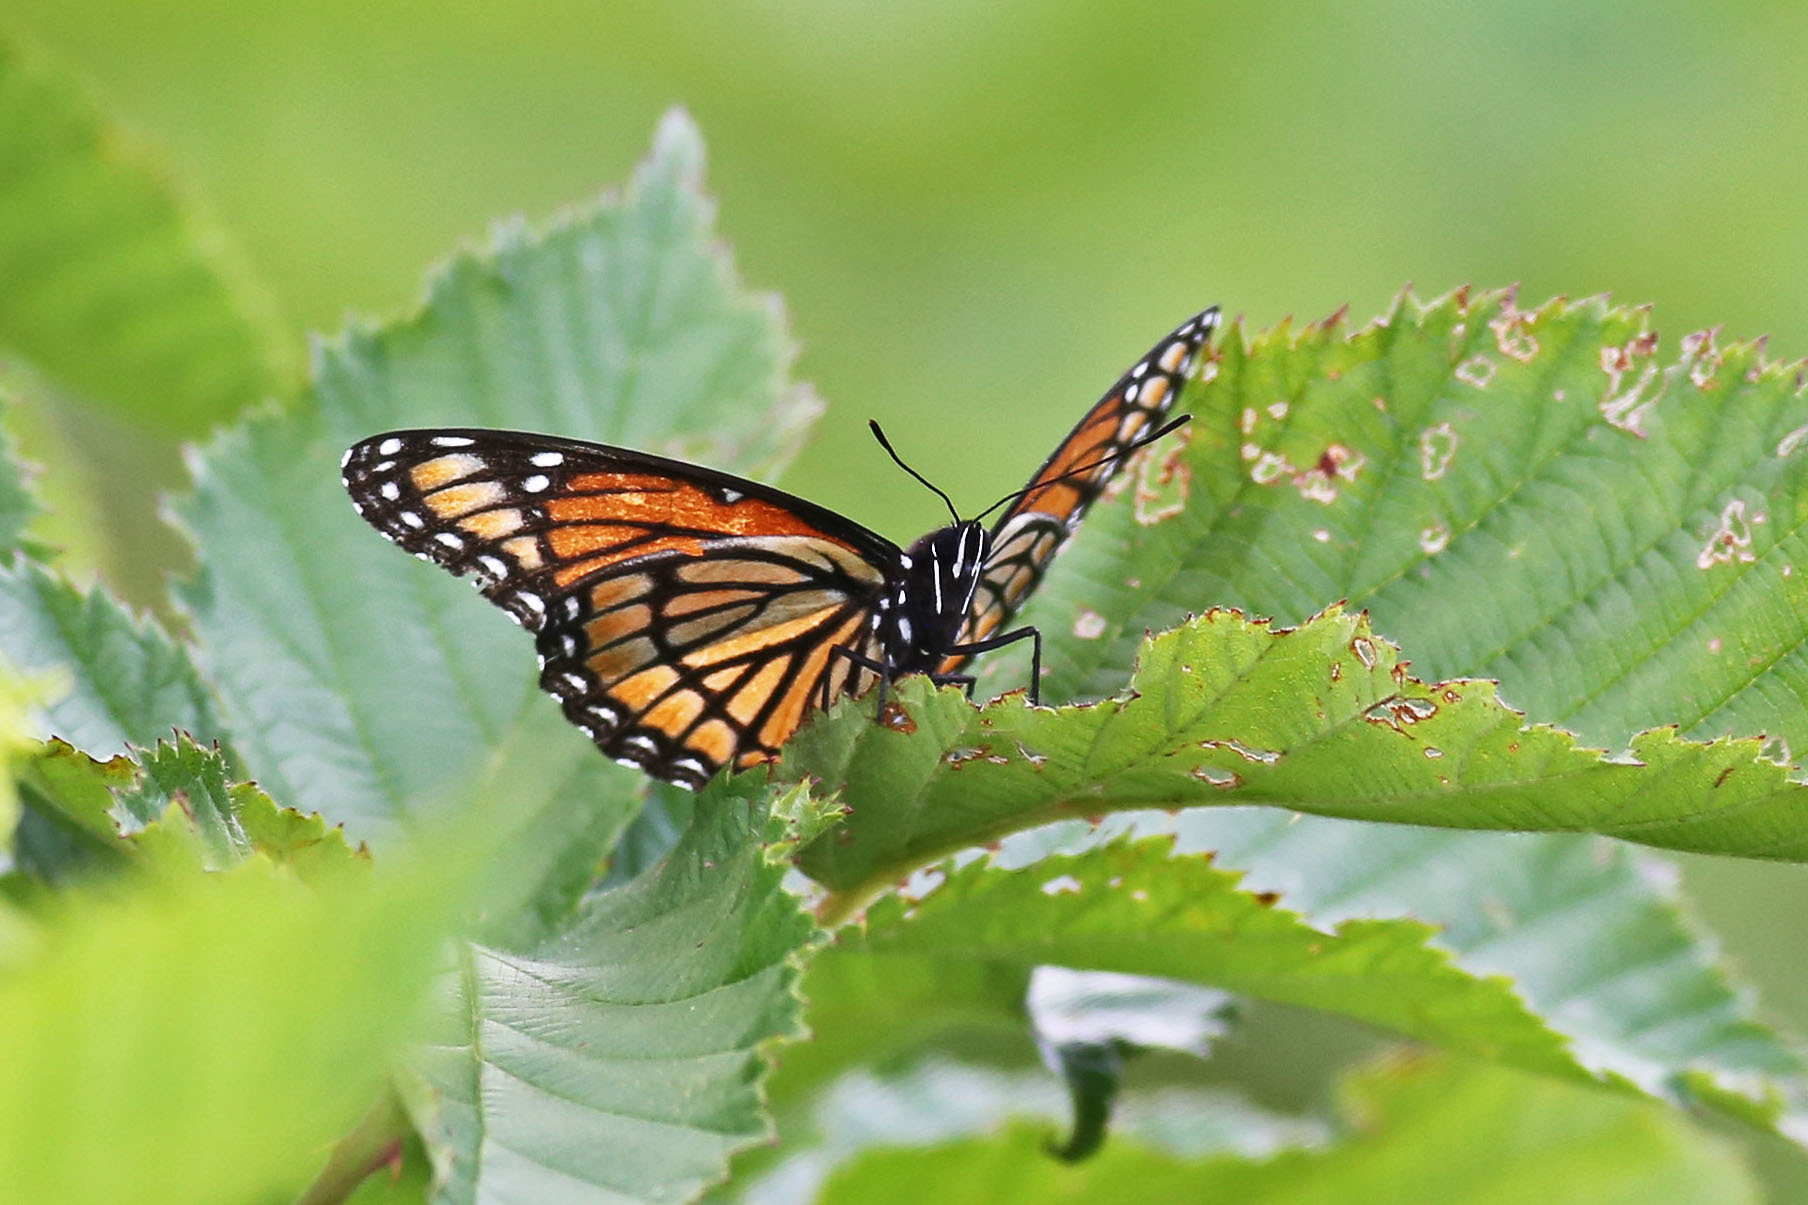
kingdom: Animalia
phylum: Arthropoda
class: Insecta
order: Lepidoptera
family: Nymphalidae
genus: Limenitis
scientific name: Limenitis archippus
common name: Viceroy
